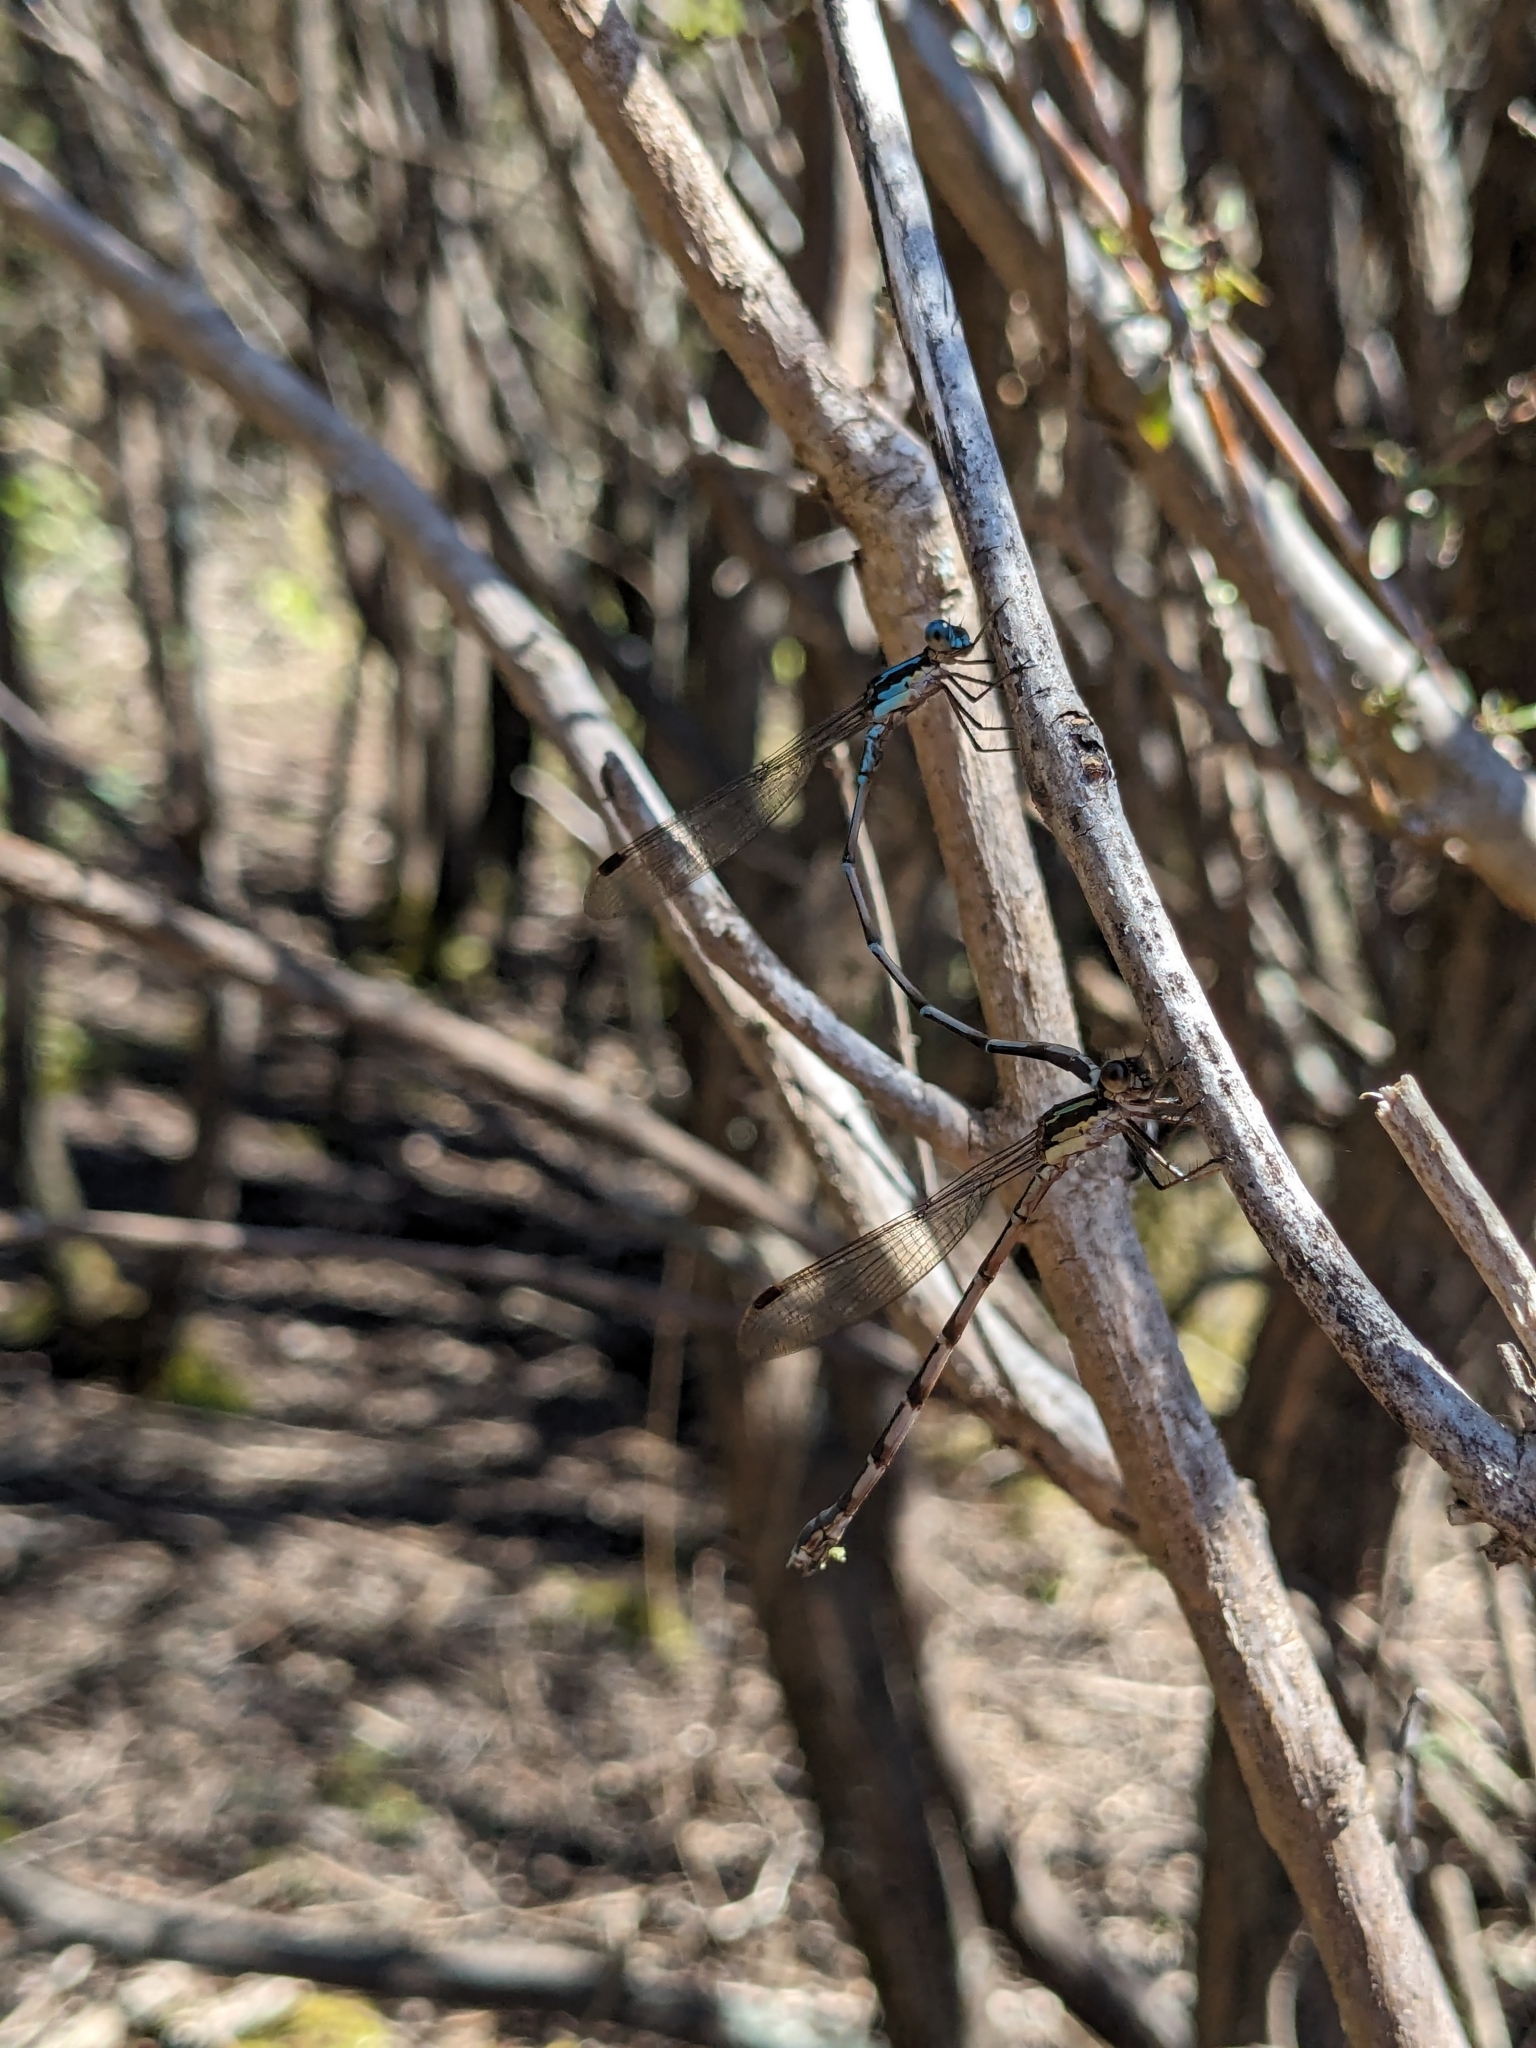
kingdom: Animalia
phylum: Arthropoda
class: Insecta
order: Odonata
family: Lestidae
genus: Austrolestes
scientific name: Austrolestes colensonis
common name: Blue damselfly
